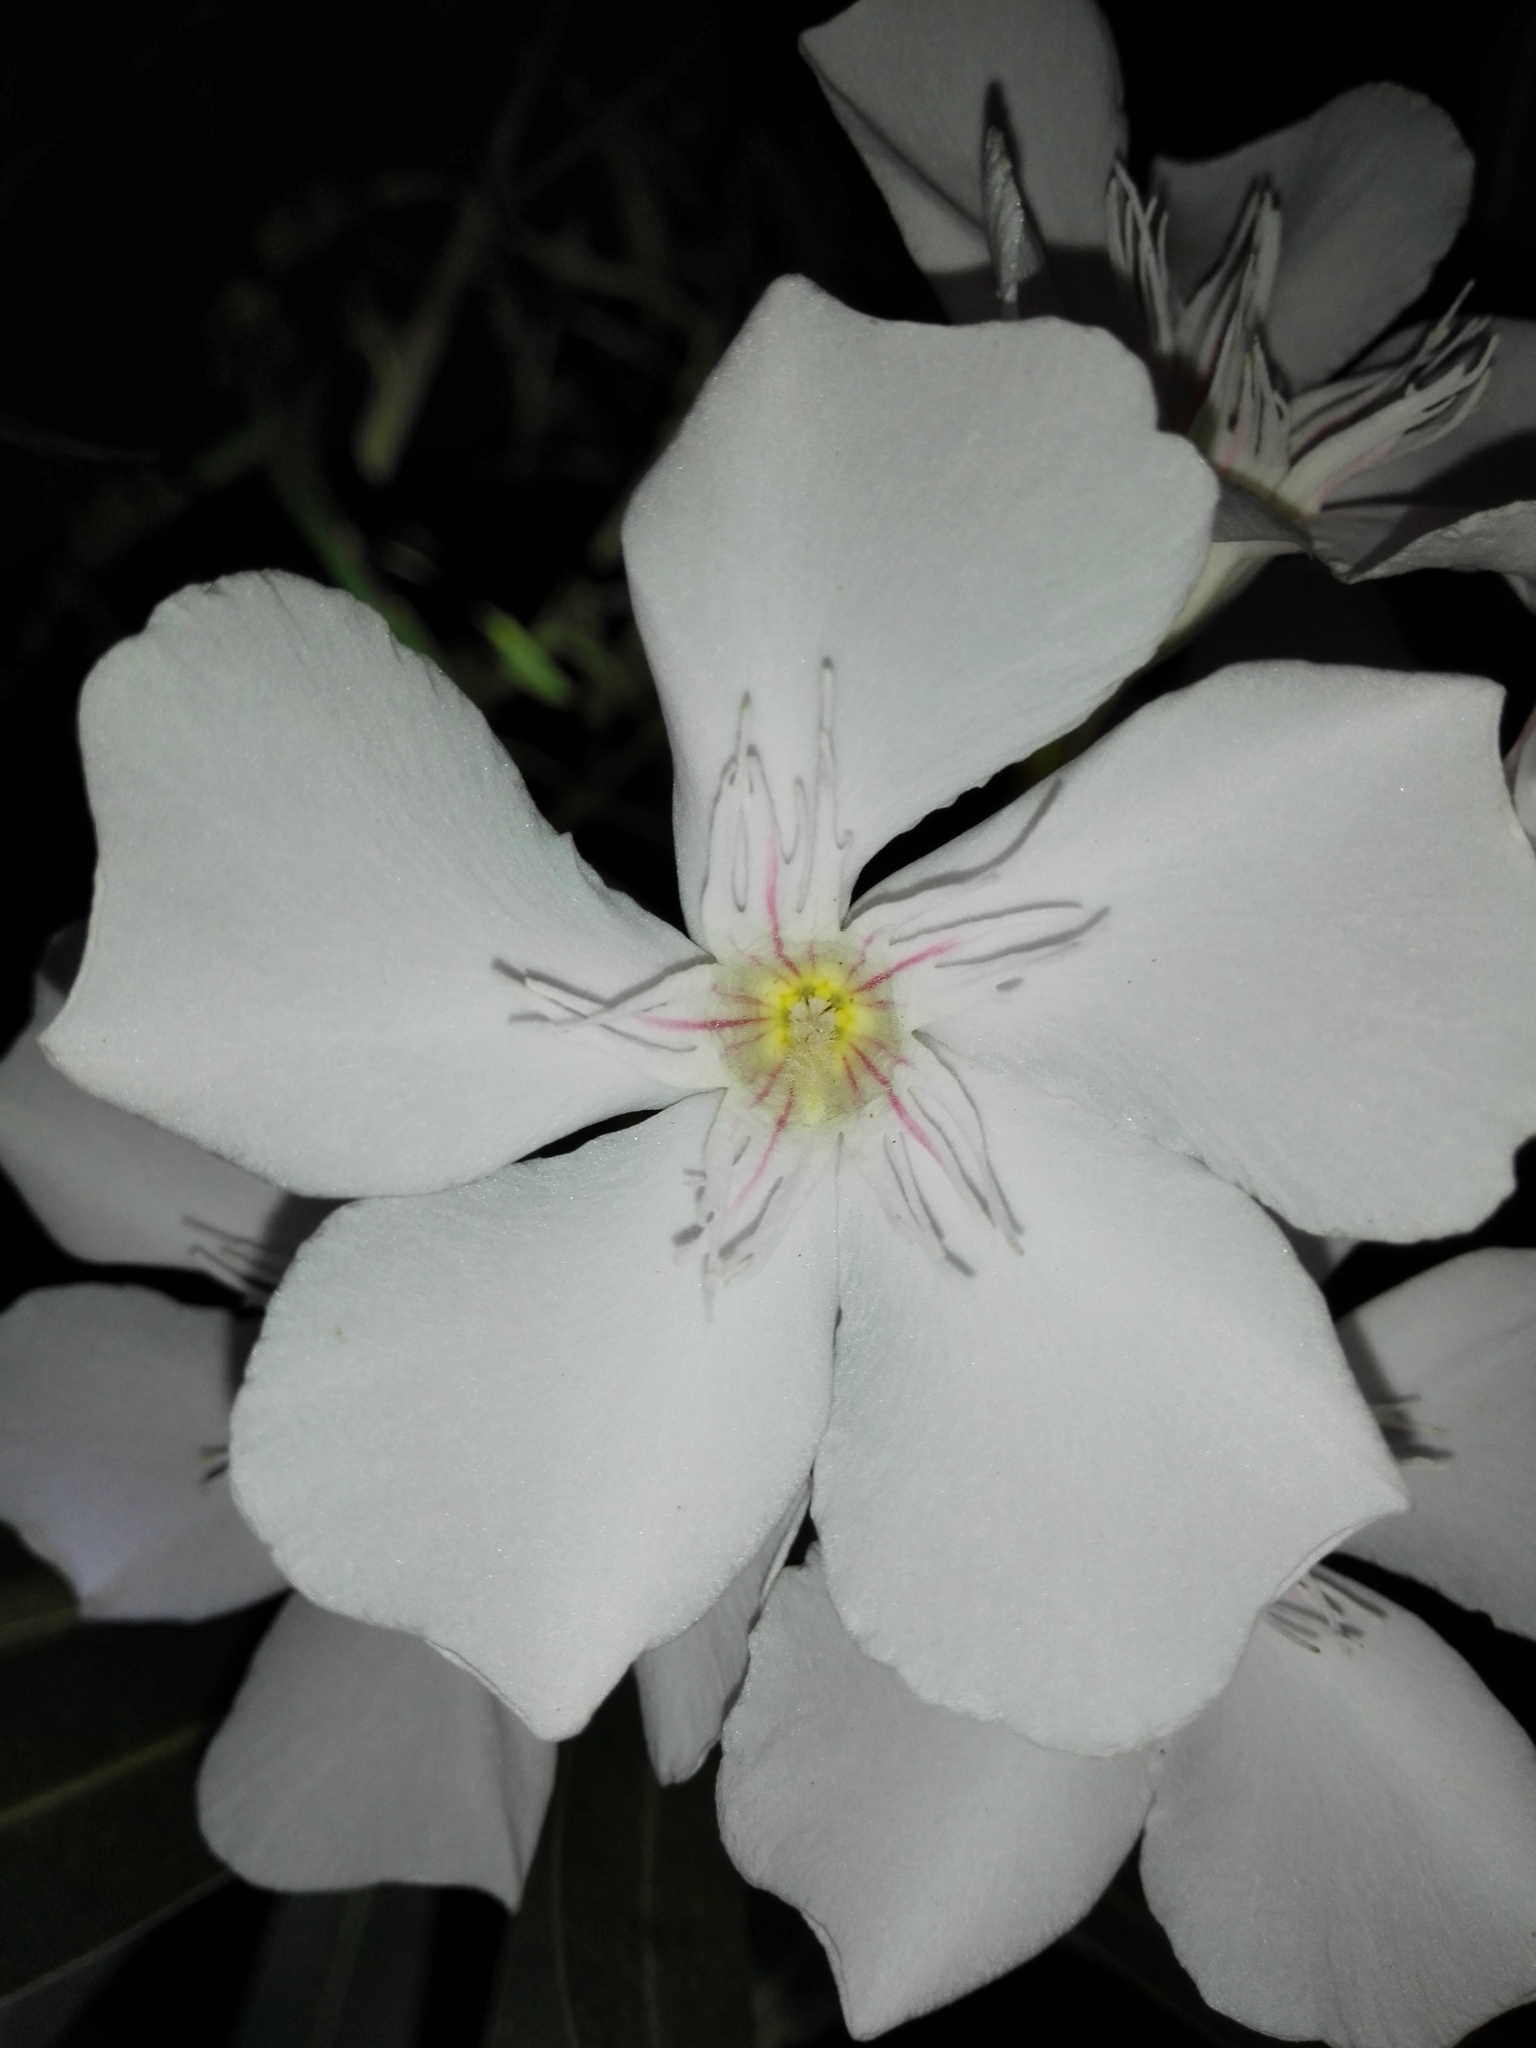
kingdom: Plantae
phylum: Tracheophyta
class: Magnoliopsida
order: Gentianales
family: Apocynaceae
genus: Nerium
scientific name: Nerium oleander
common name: Oleander
